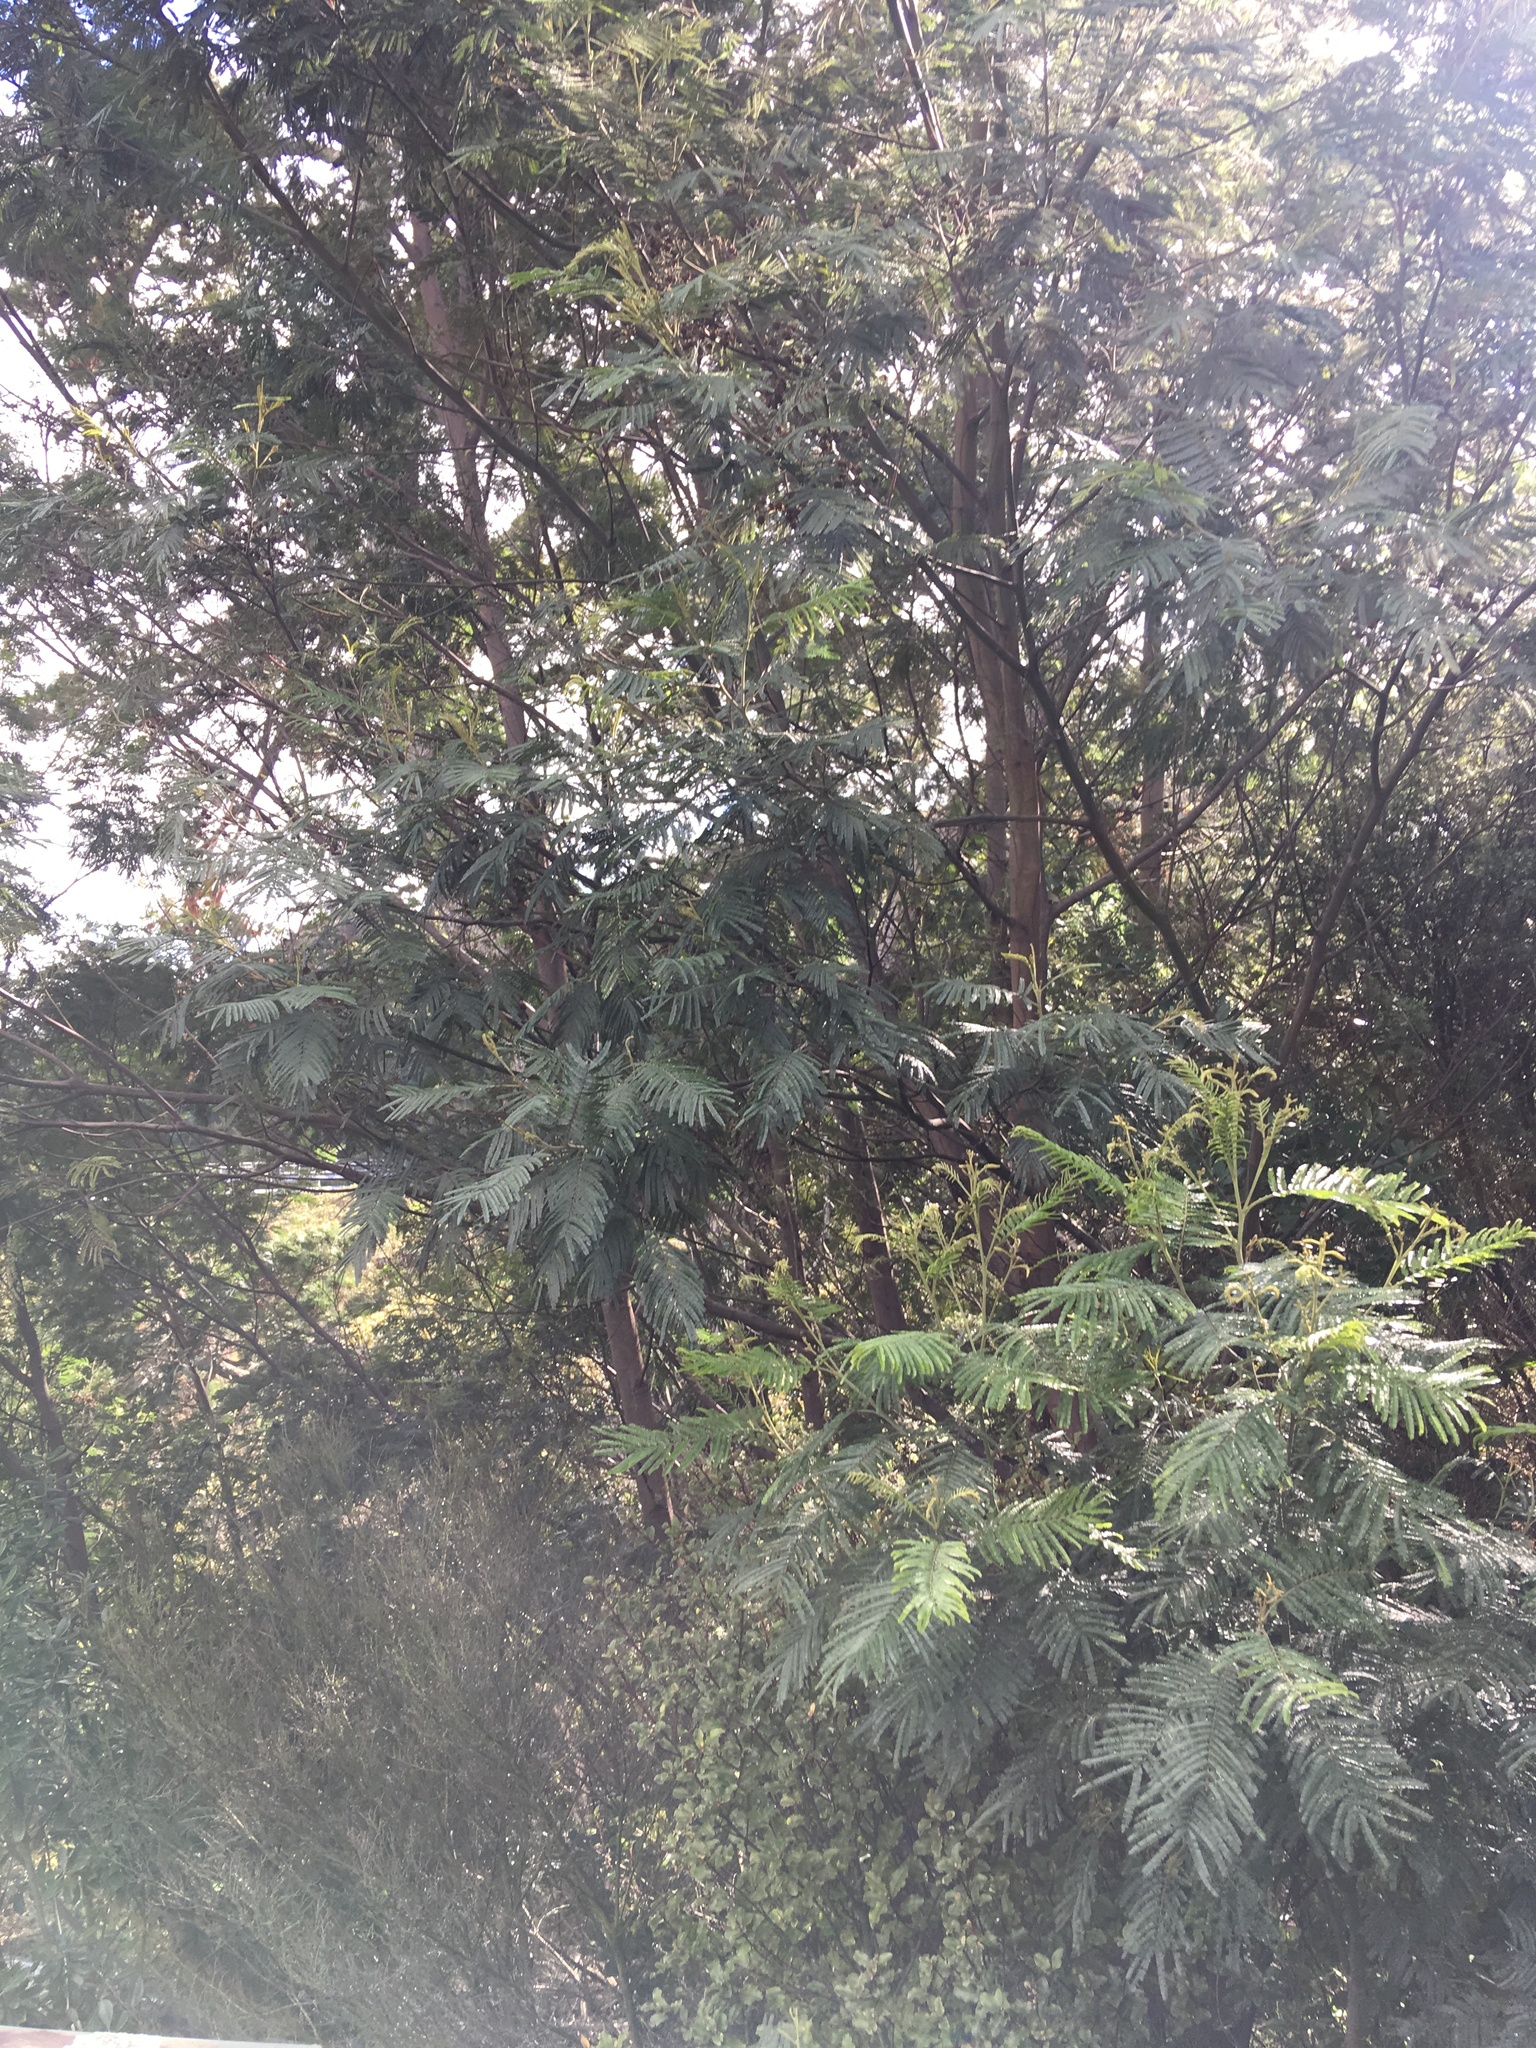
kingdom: Plantae
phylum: Tracheophyta
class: Magnoliopsida
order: Fabales
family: Fabaceae
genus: Paraserianthes
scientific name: Paraserianthes lophantha
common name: Plume albizia
